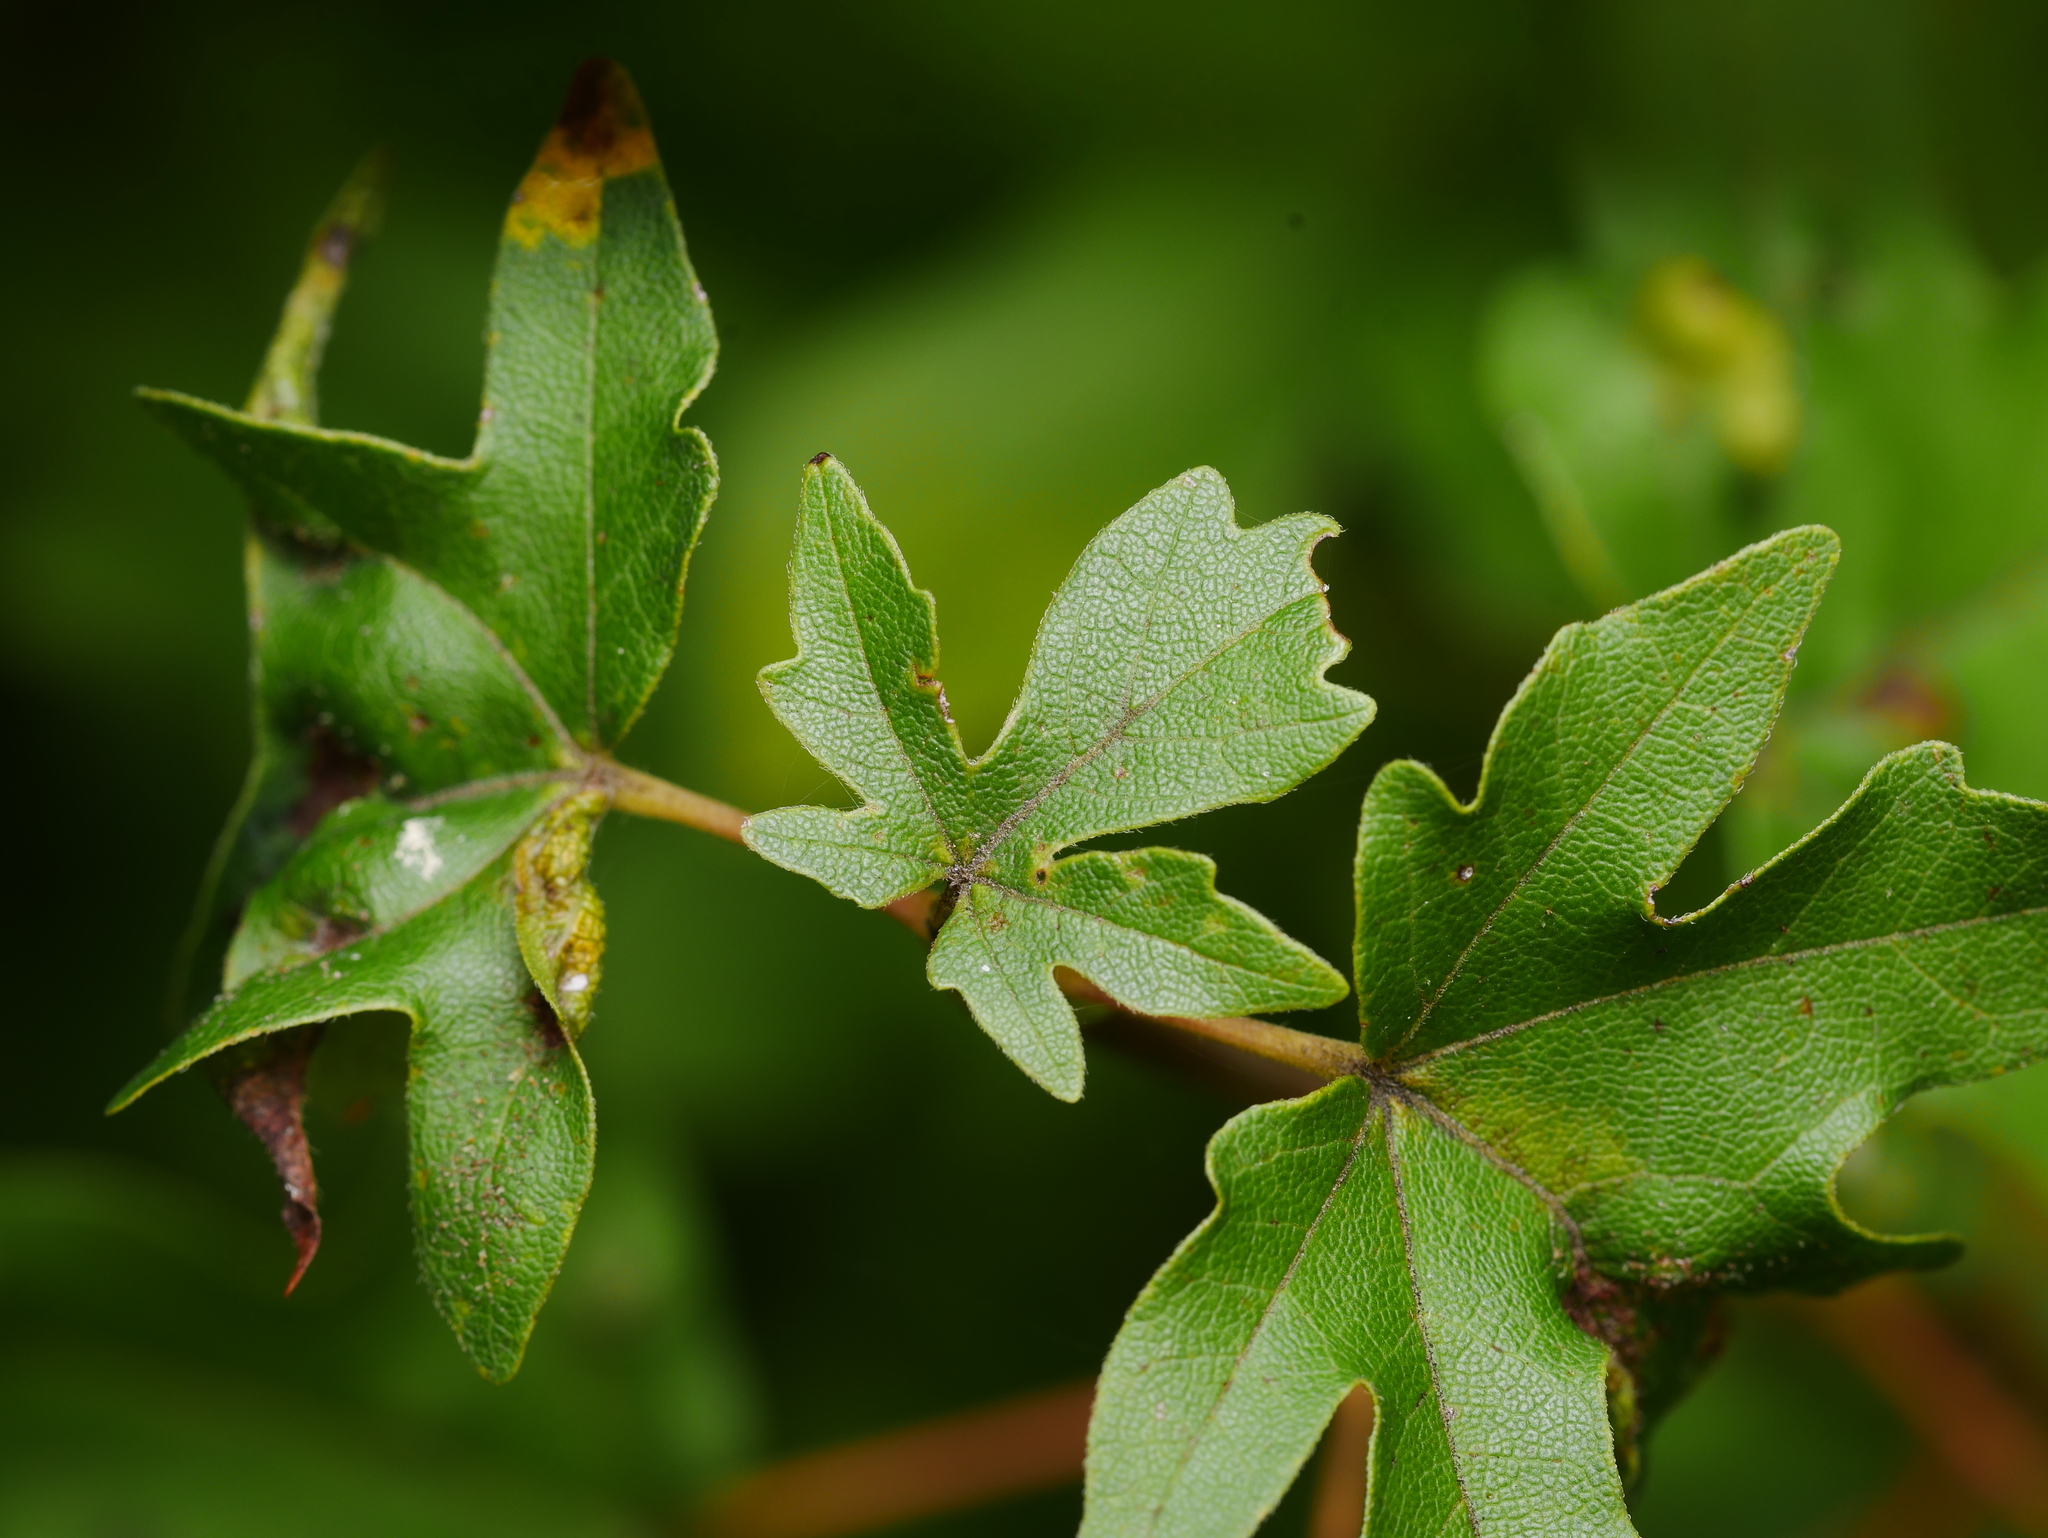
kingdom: Plantae
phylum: Tracheophyta
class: Magnoliopsida
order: Sapindales
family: Sapindaceae
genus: Acer
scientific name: Acer campestre
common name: Field maple
